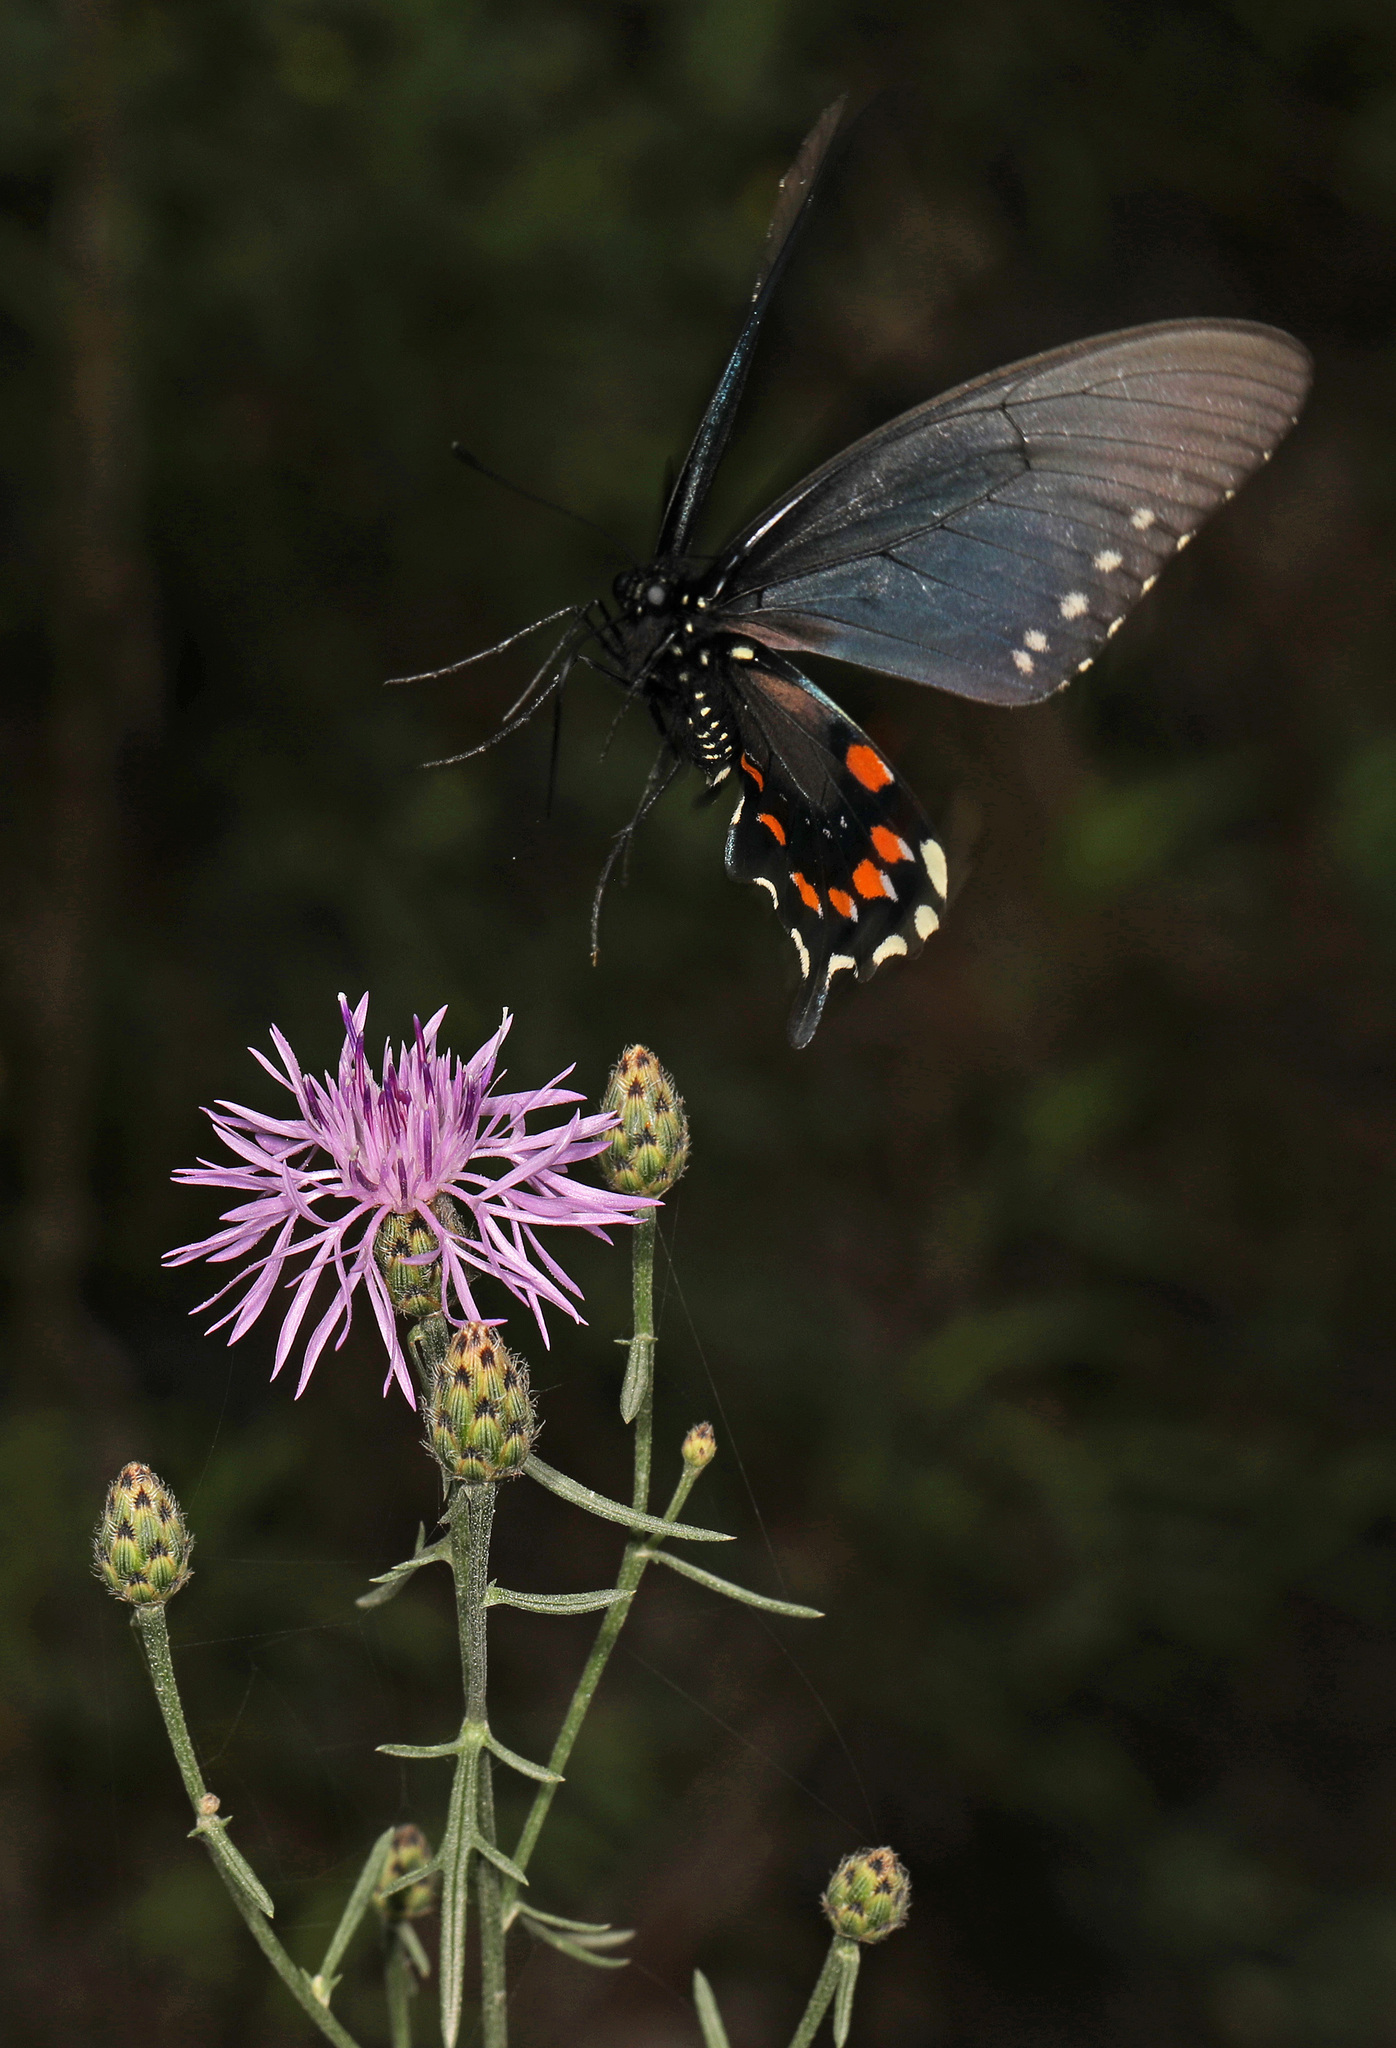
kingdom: Animalia
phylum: Arthropoda
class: Insecta
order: Lepidoptera
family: Papilionidae
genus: Battus
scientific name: Battus philenor
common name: Pipevine swallowtail
